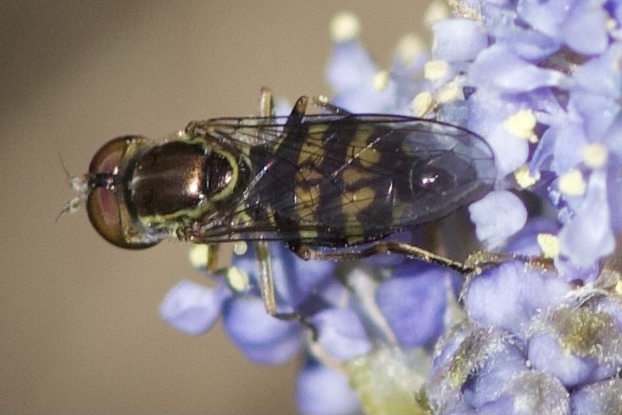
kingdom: Animalia
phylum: Arthropoda
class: Insecta
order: Diptera
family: Syrphidae
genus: Toxomerus
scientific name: Toxomerus occidentalis
